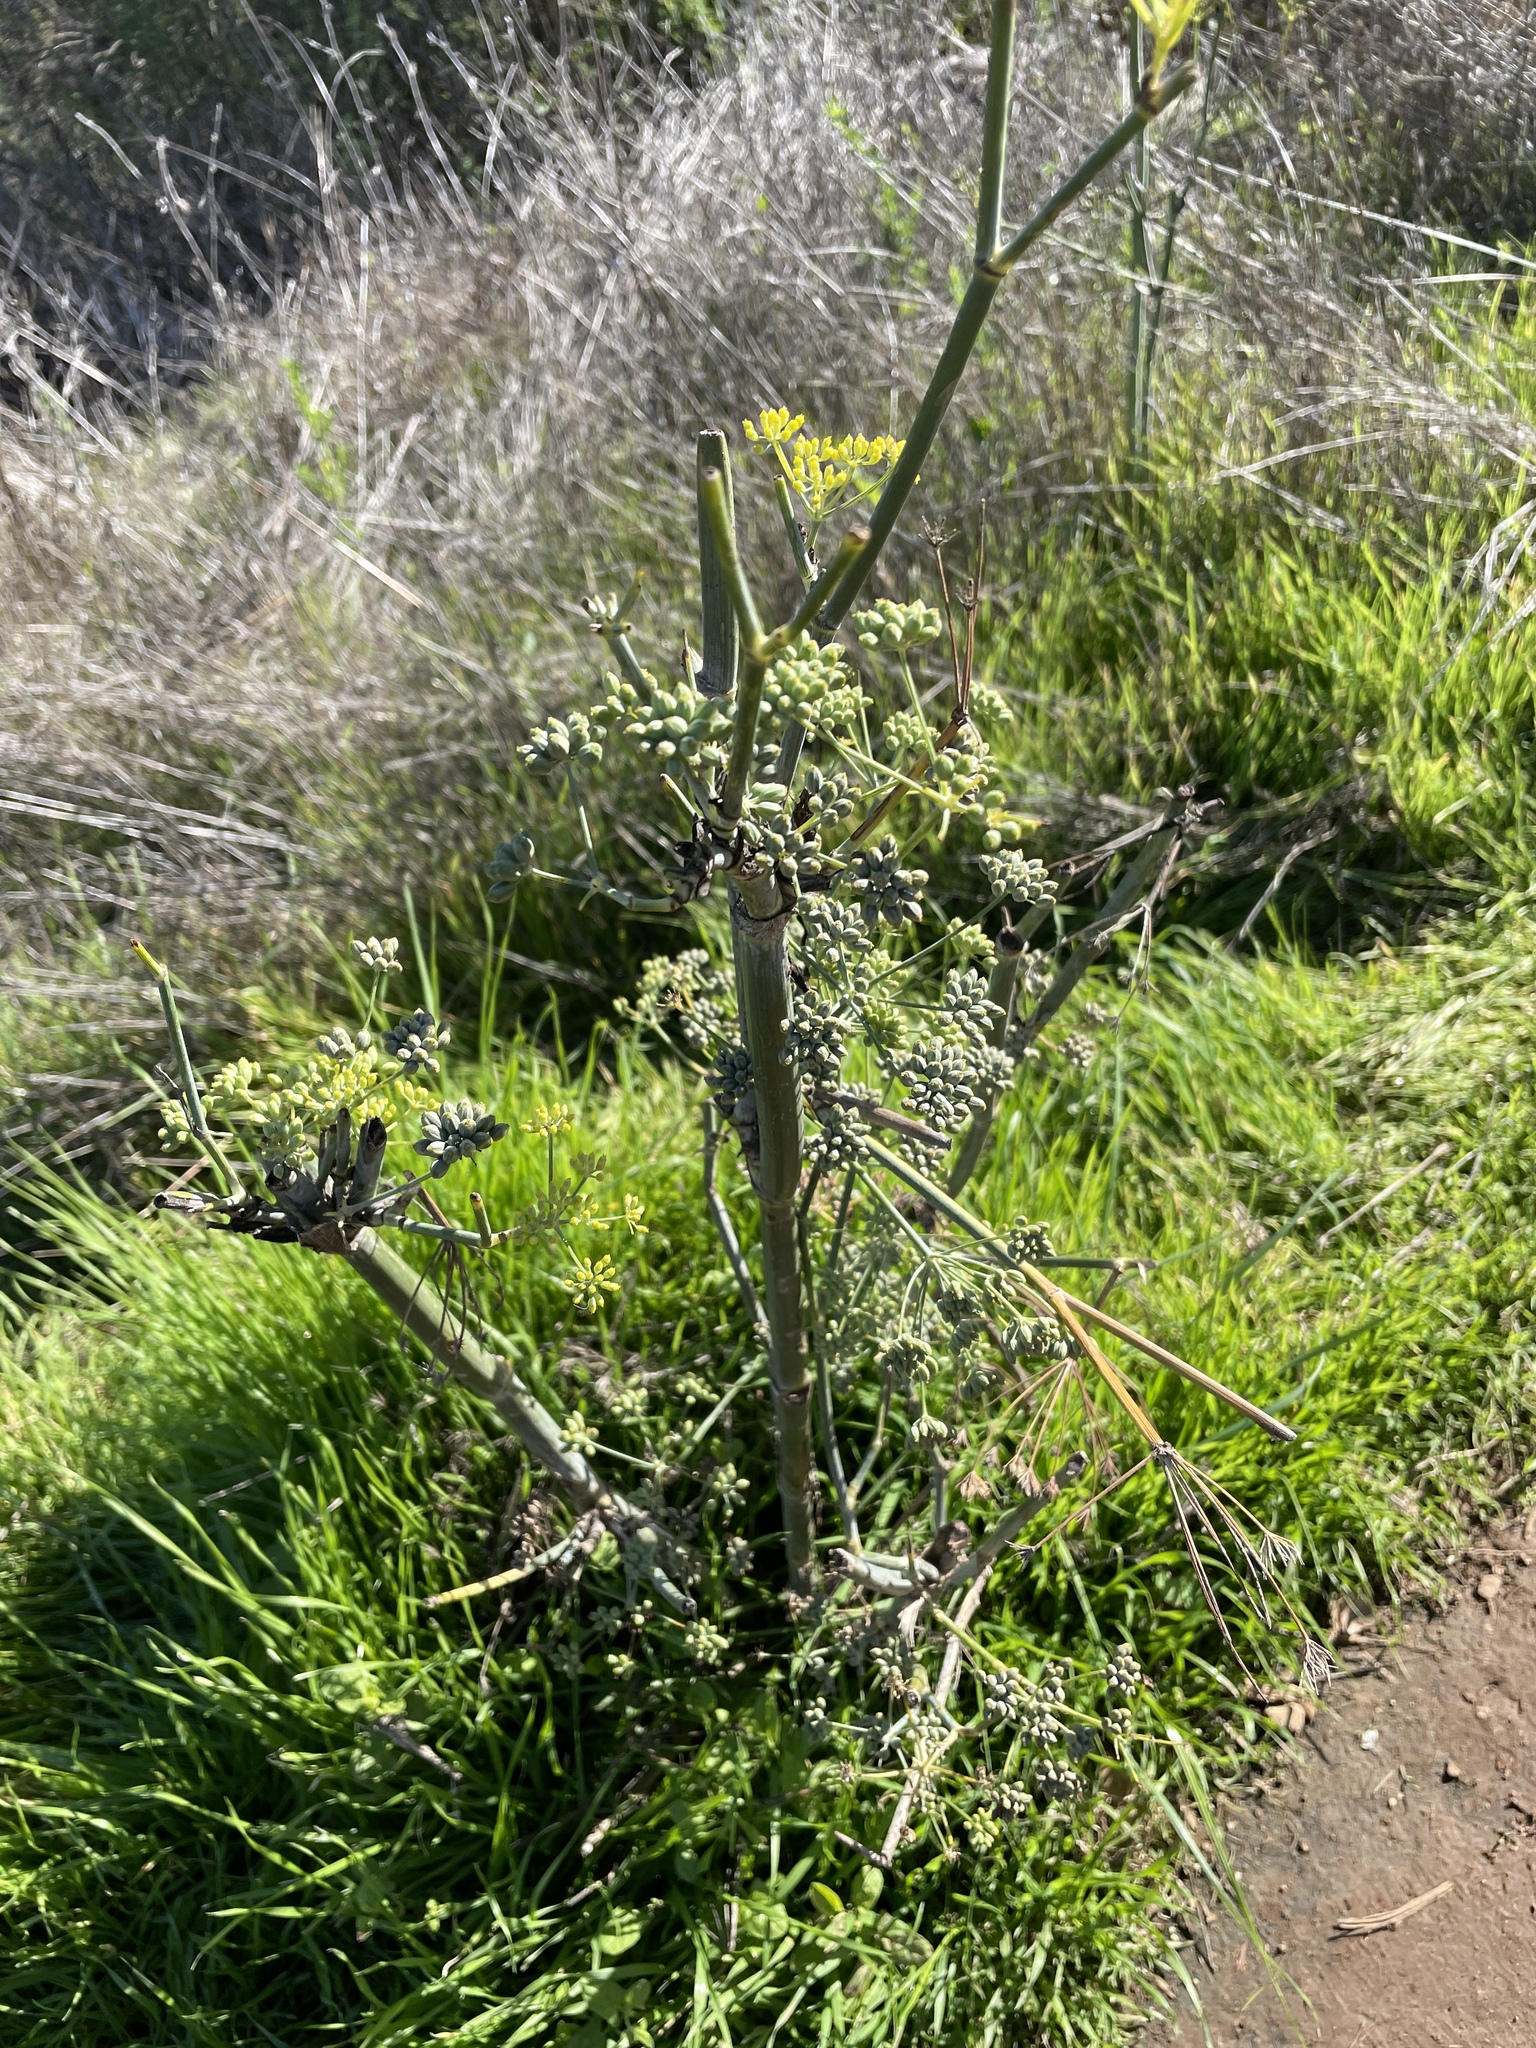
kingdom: Plantae
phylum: Tracheophyta
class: Magnoliopsida
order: Apiales
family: Apiaceae
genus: Foeniculum
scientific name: Foeniculum vulgare
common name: Fennel
